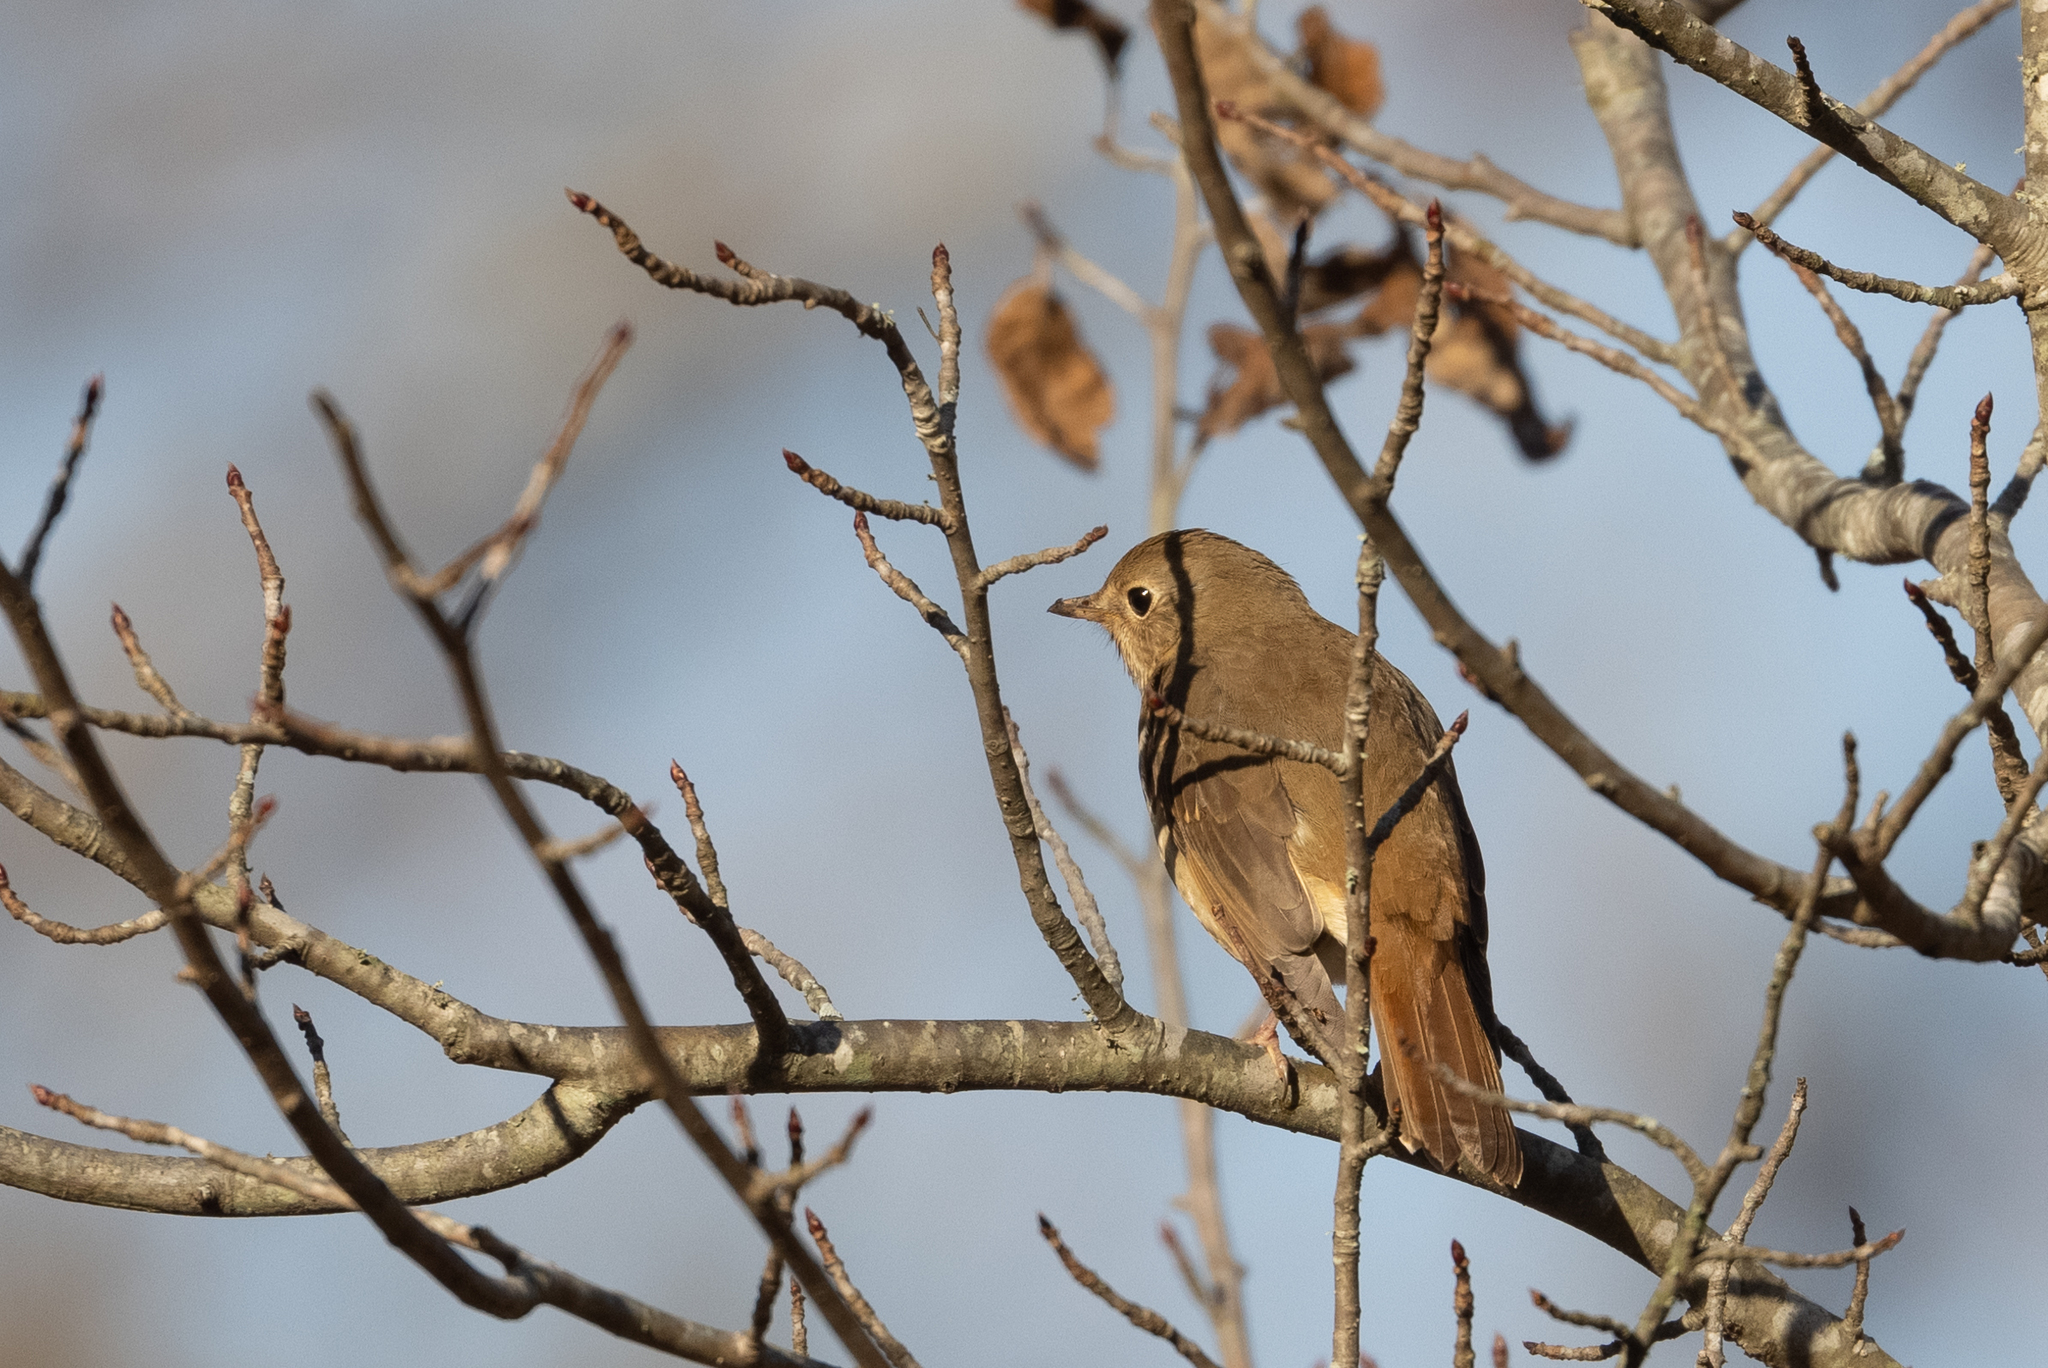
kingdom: Animalia
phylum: Chordata
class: Aves
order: Passeriformes
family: Turdidae
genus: Catharus
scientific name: Catharus guttatus
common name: Hermit thrush
